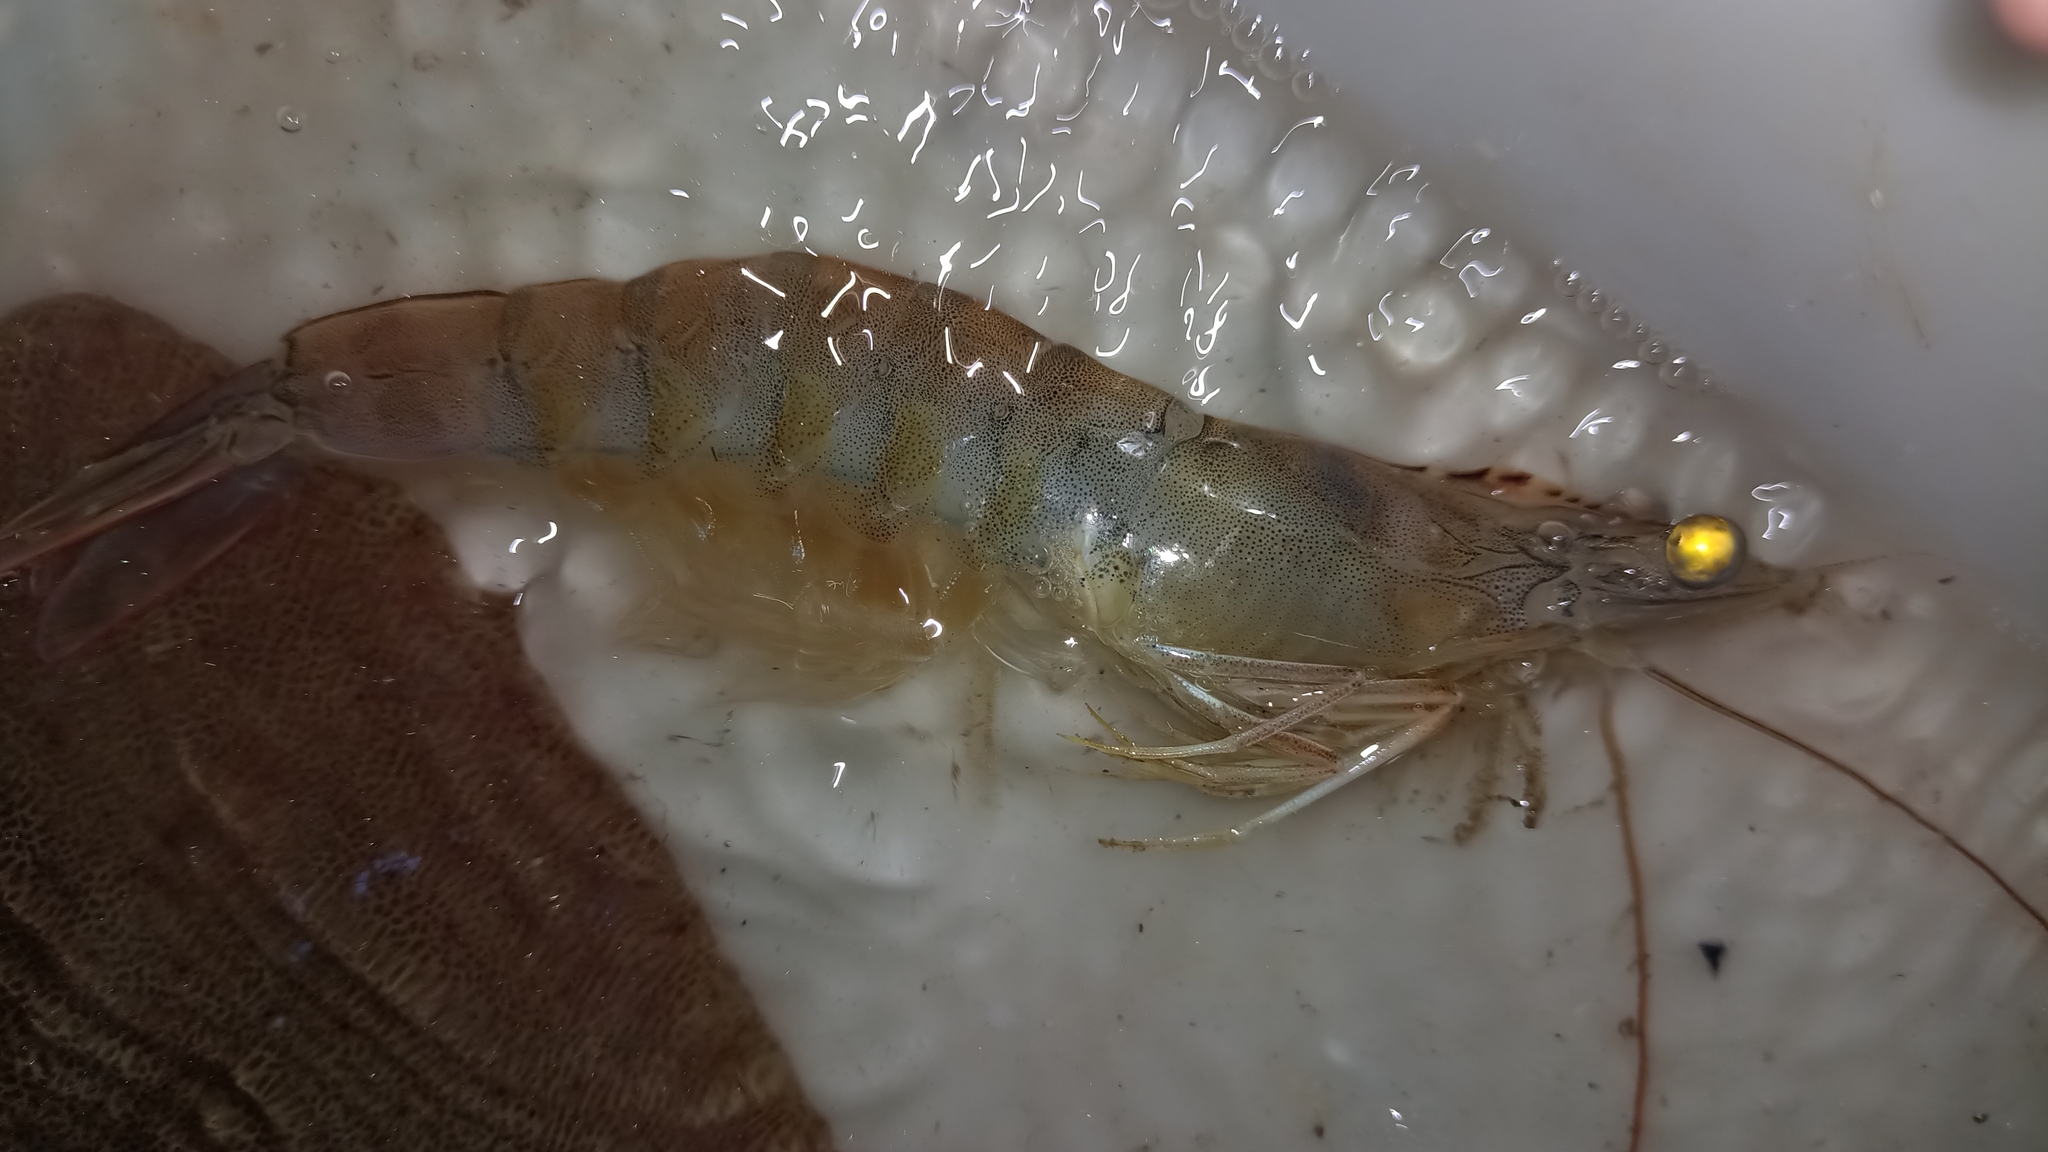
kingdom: Animalia
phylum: Arthropoda
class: Malacostraca
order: Decapoda
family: Penaeidae
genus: Penaeus
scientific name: Penaeus schmitti
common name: Southern white shrimp
